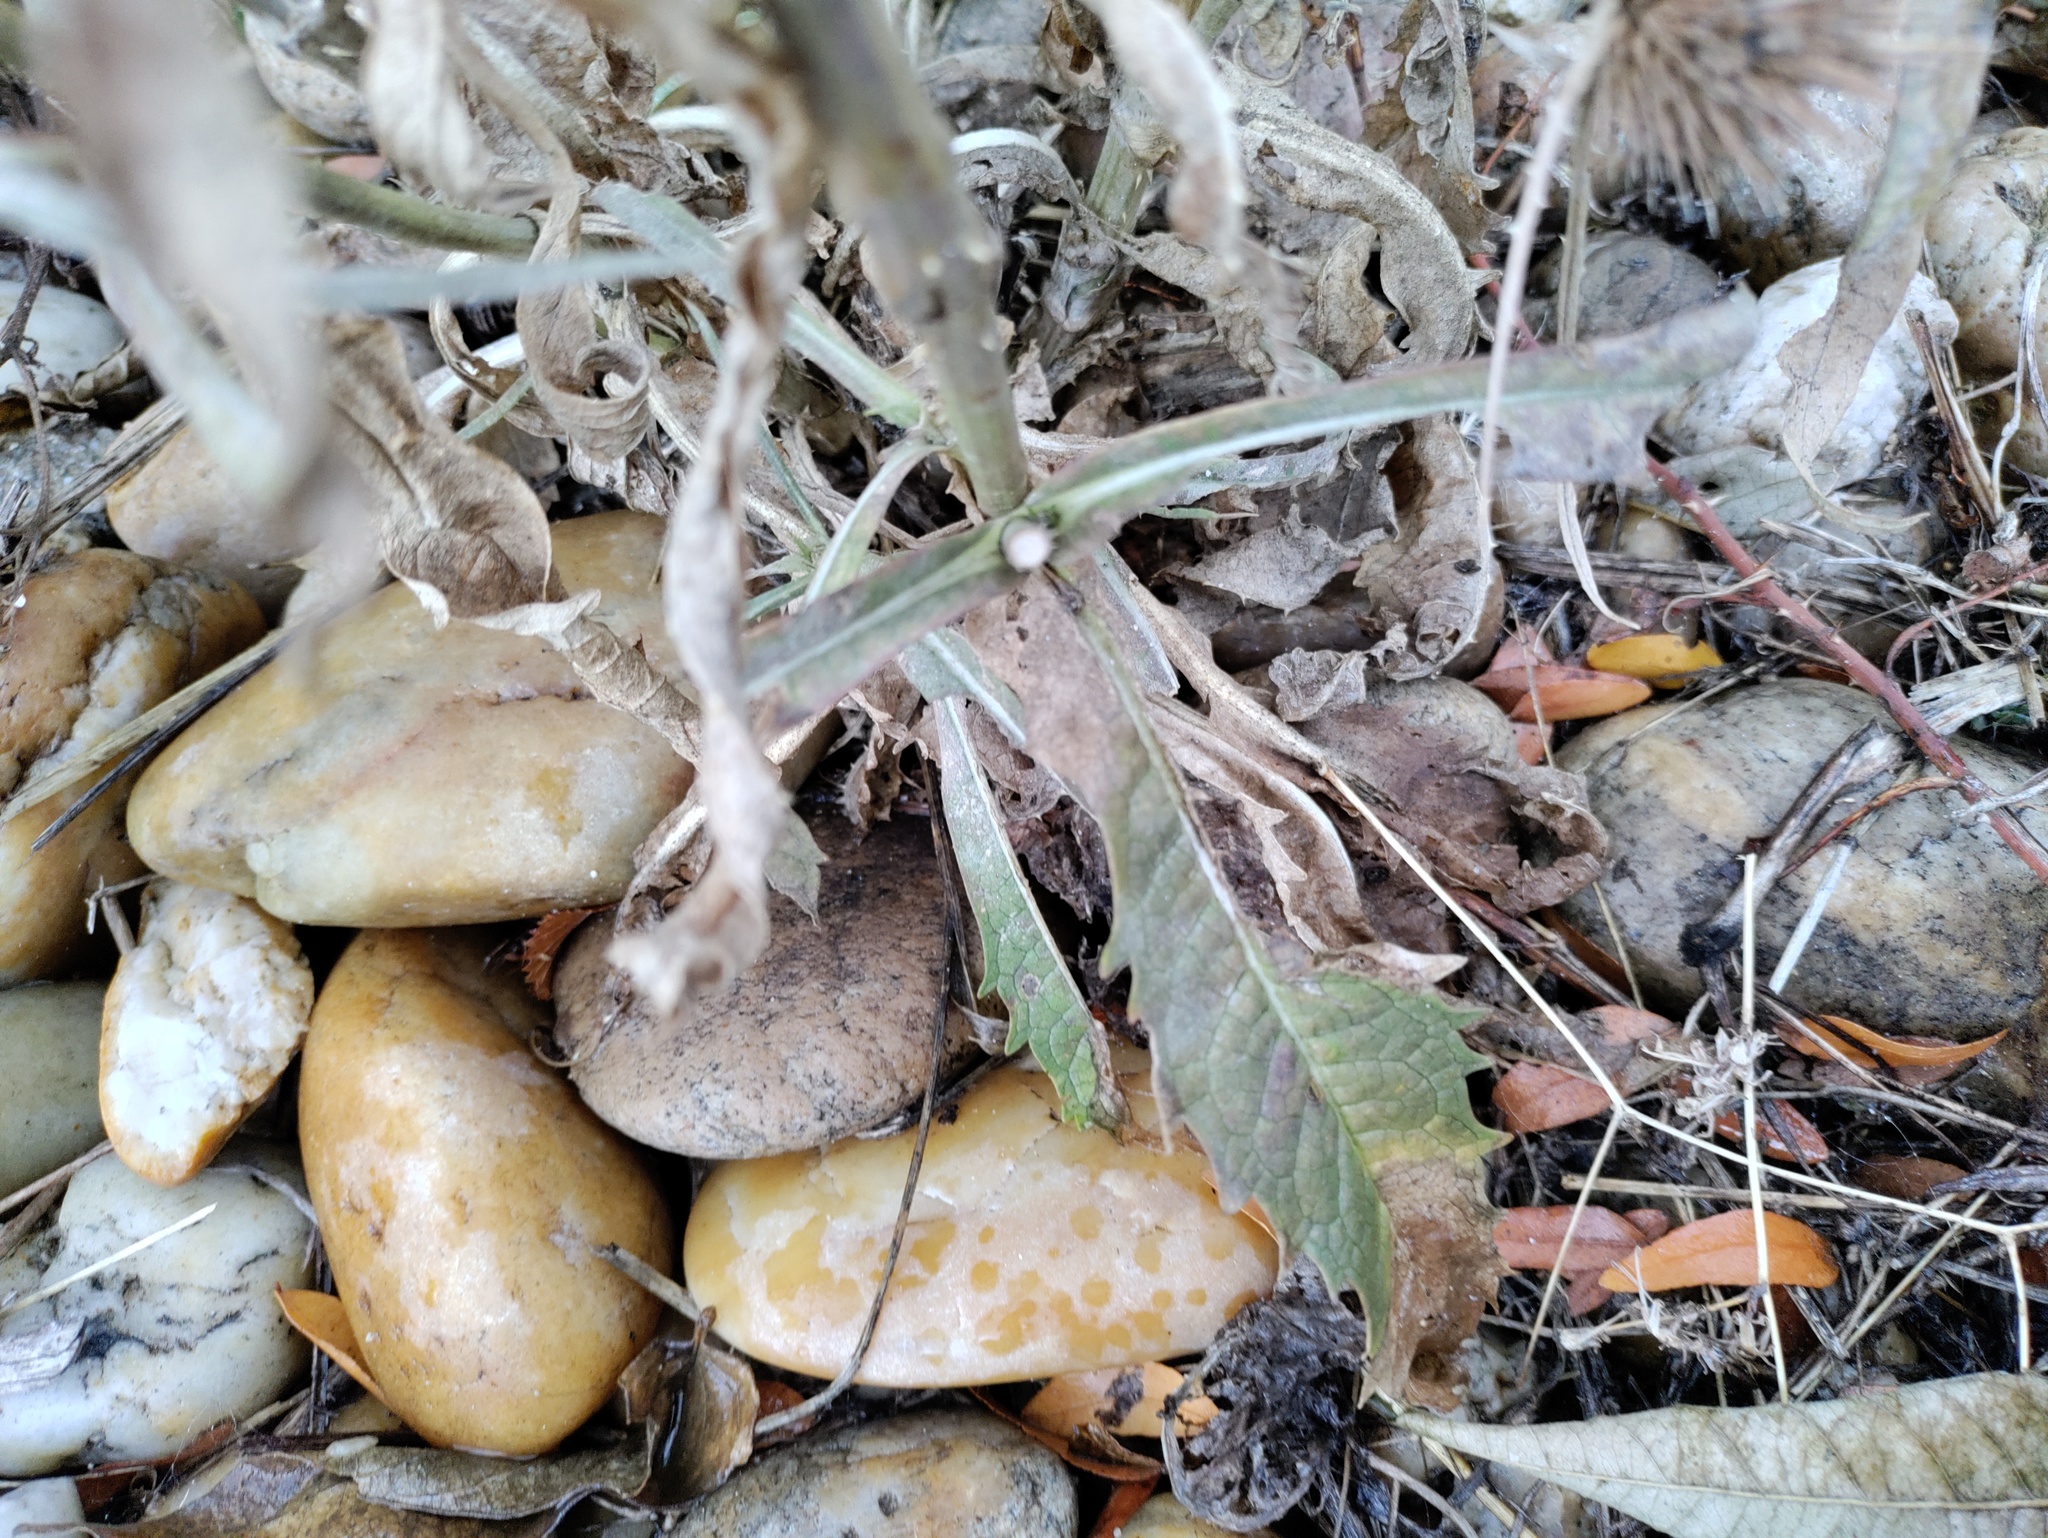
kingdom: Plantae
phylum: Tracheophyta
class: Magnoliopsida
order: Dipsacales
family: Caprifoliaceae
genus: Dipsacus
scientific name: Dipsacus fullonum
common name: Teasel
